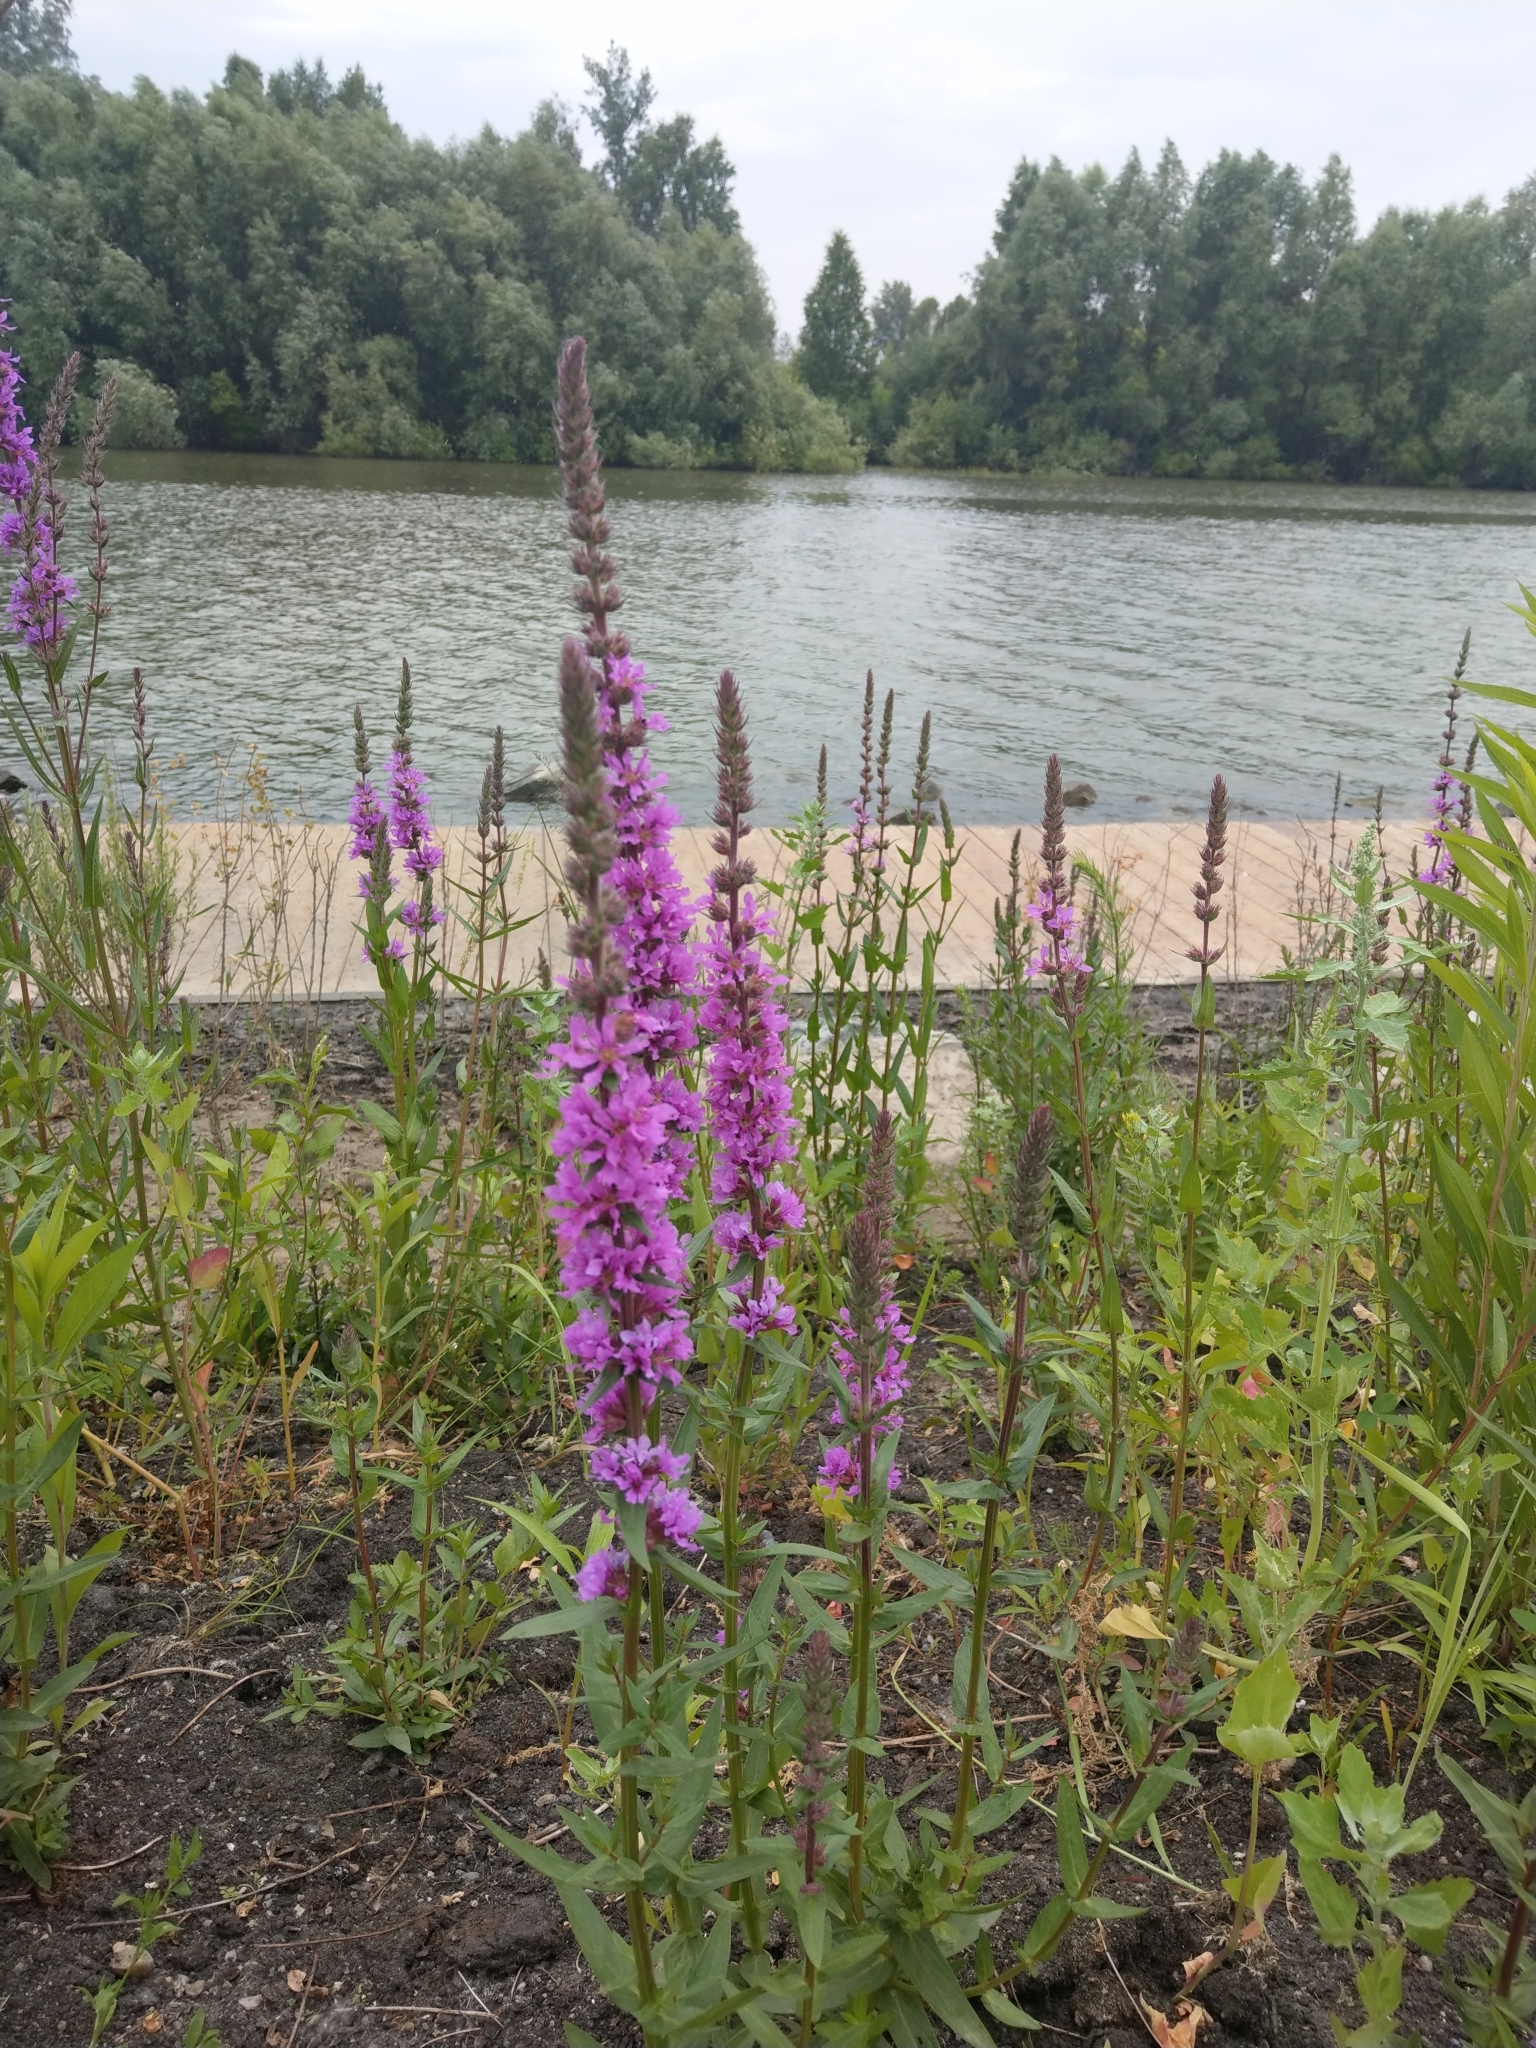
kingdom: Plantae
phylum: Tracheophyta
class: Magnoliopsida
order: Myrtales
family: Lythraceae
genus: Lythrum
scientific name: Lythrum salicaria
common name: Purple loosestrife
